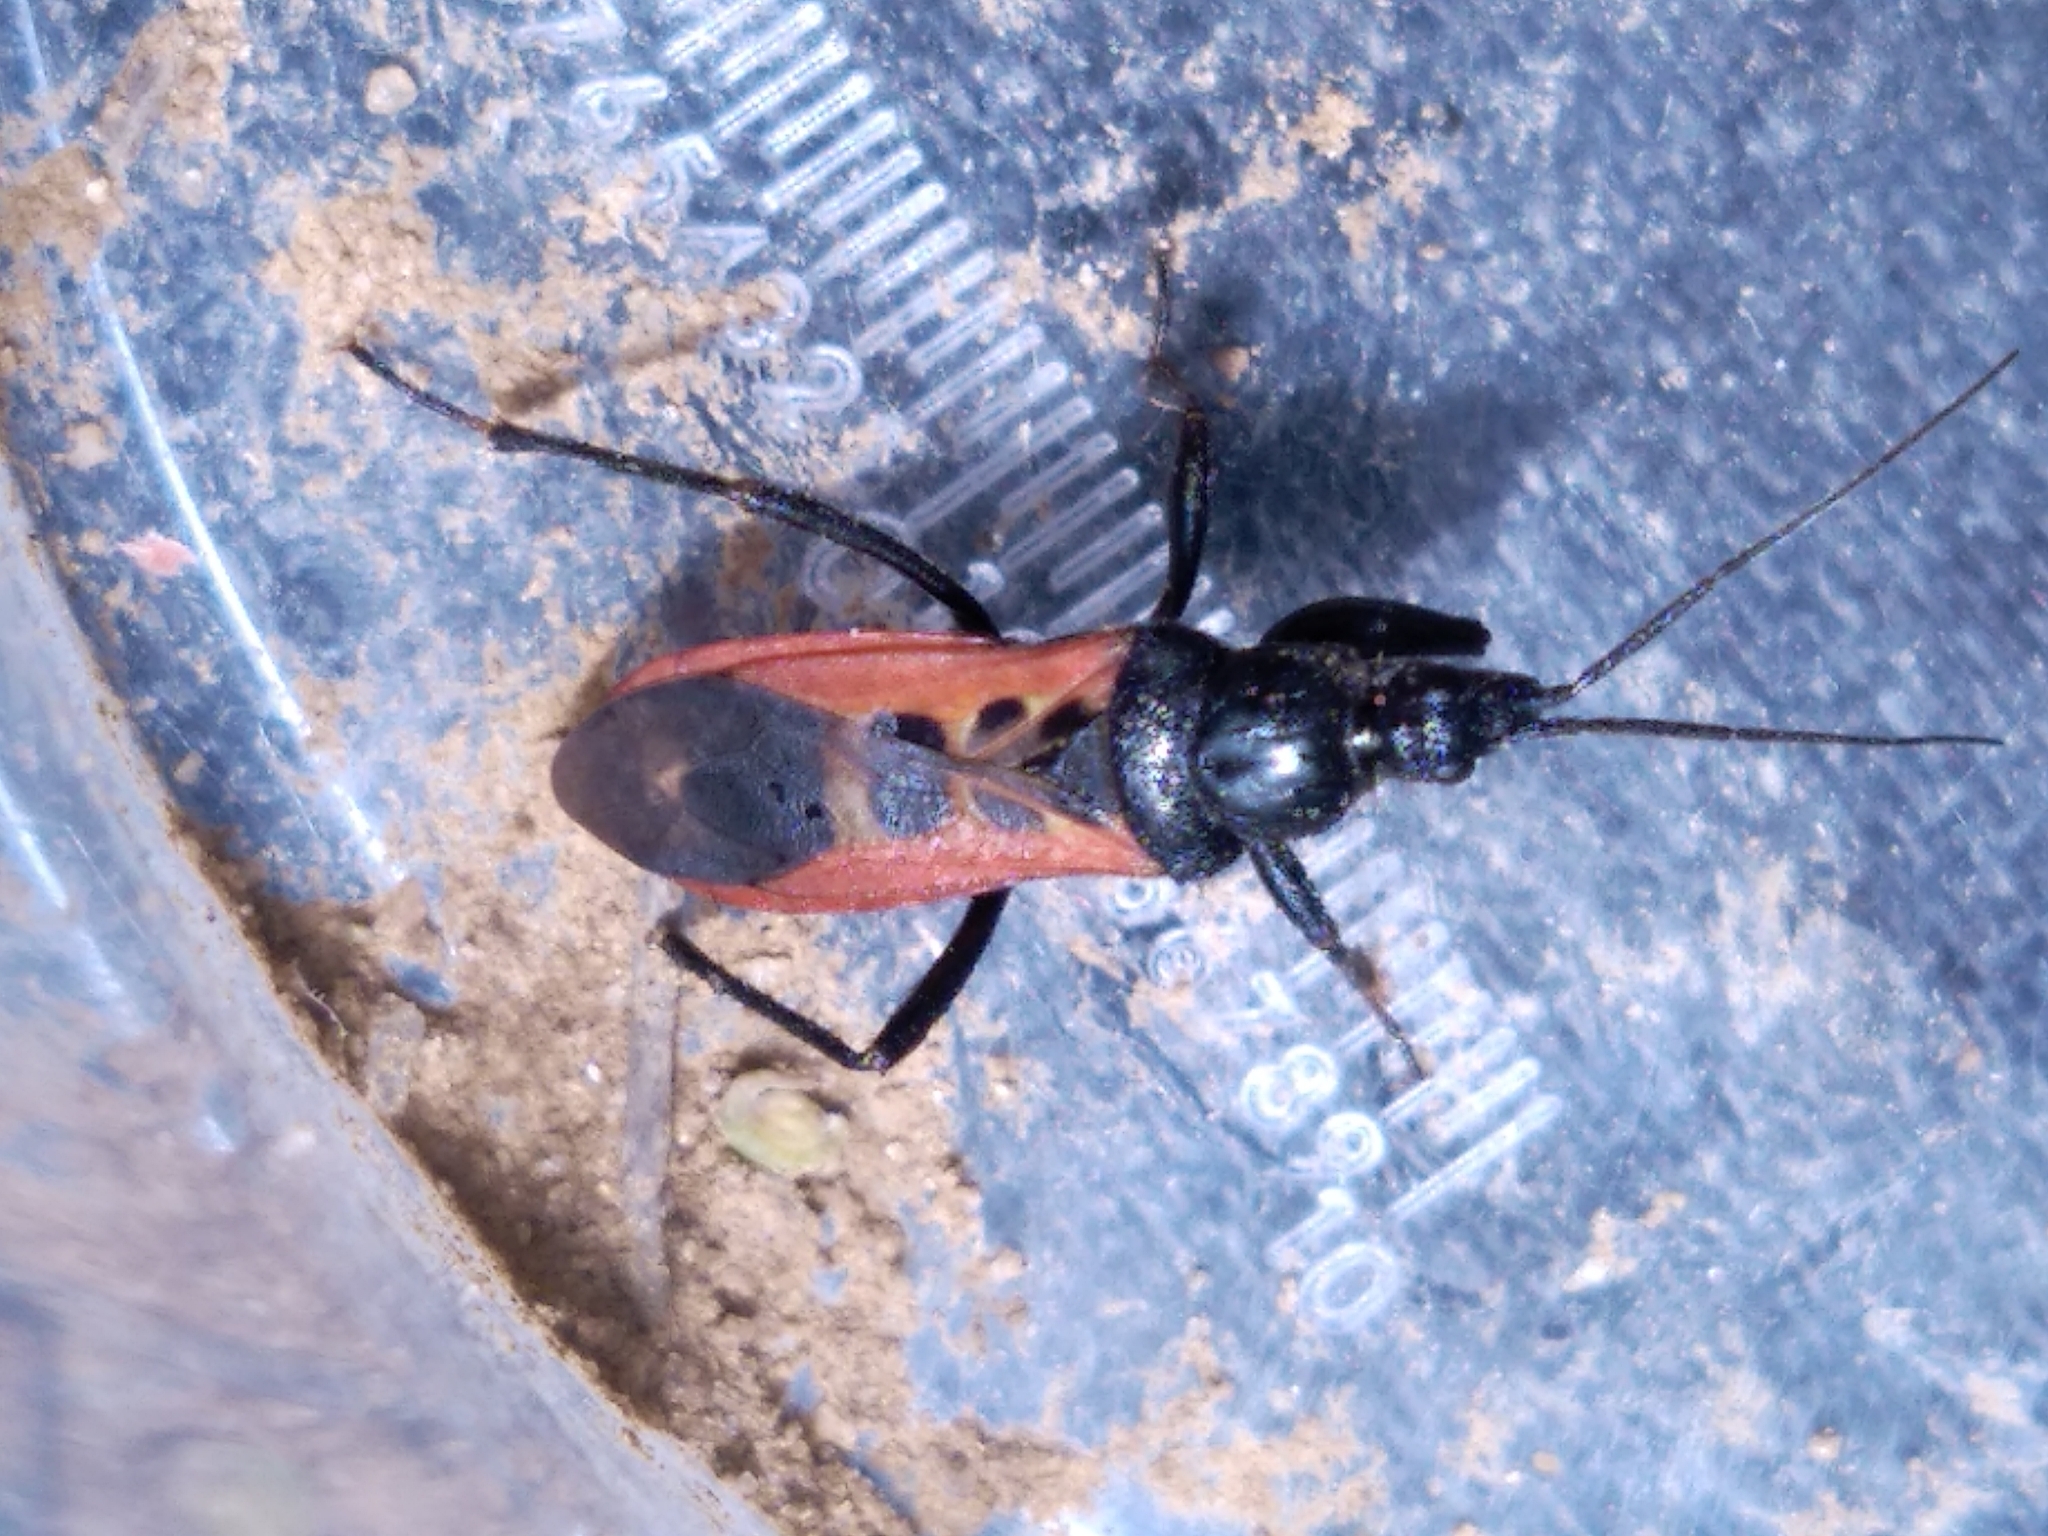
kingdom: Animalia
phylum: Arthropoda
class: Insecta
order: Hemiptera
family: Reduviidae
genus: Peirates
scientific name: Peirates stridulus
